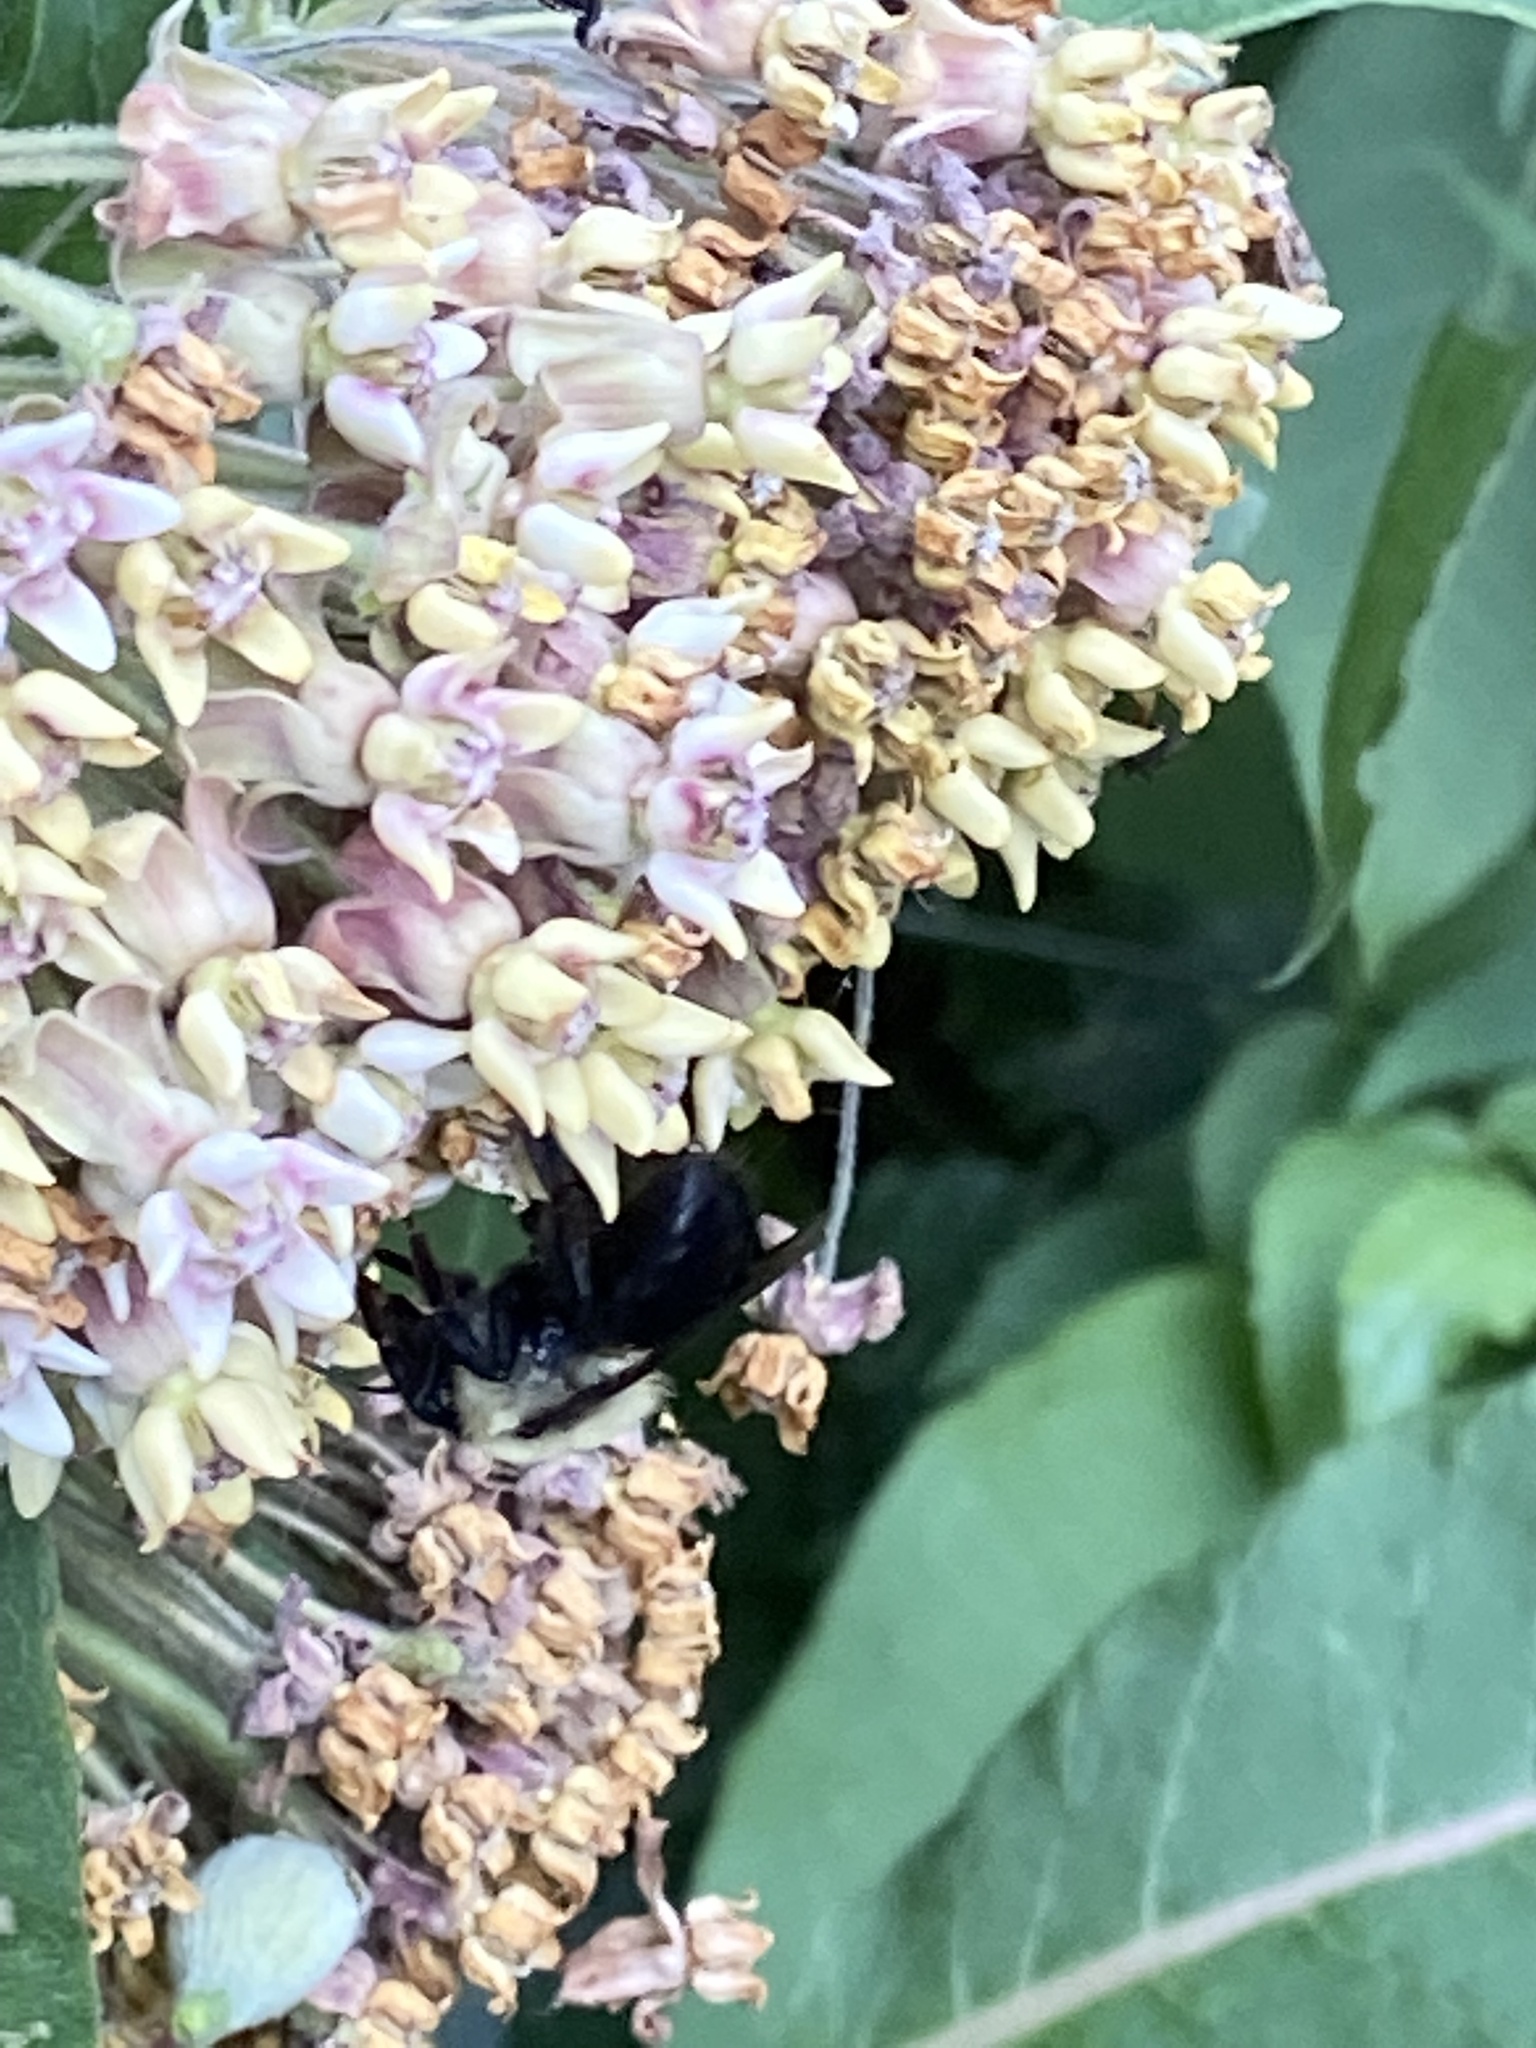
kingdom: Animalia
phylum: Arthropoda
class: Insecta
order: Hymenoptera
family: Apidae
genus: Bombus
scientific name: Bombus griseocollis
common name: Brown-belted bumble bee
